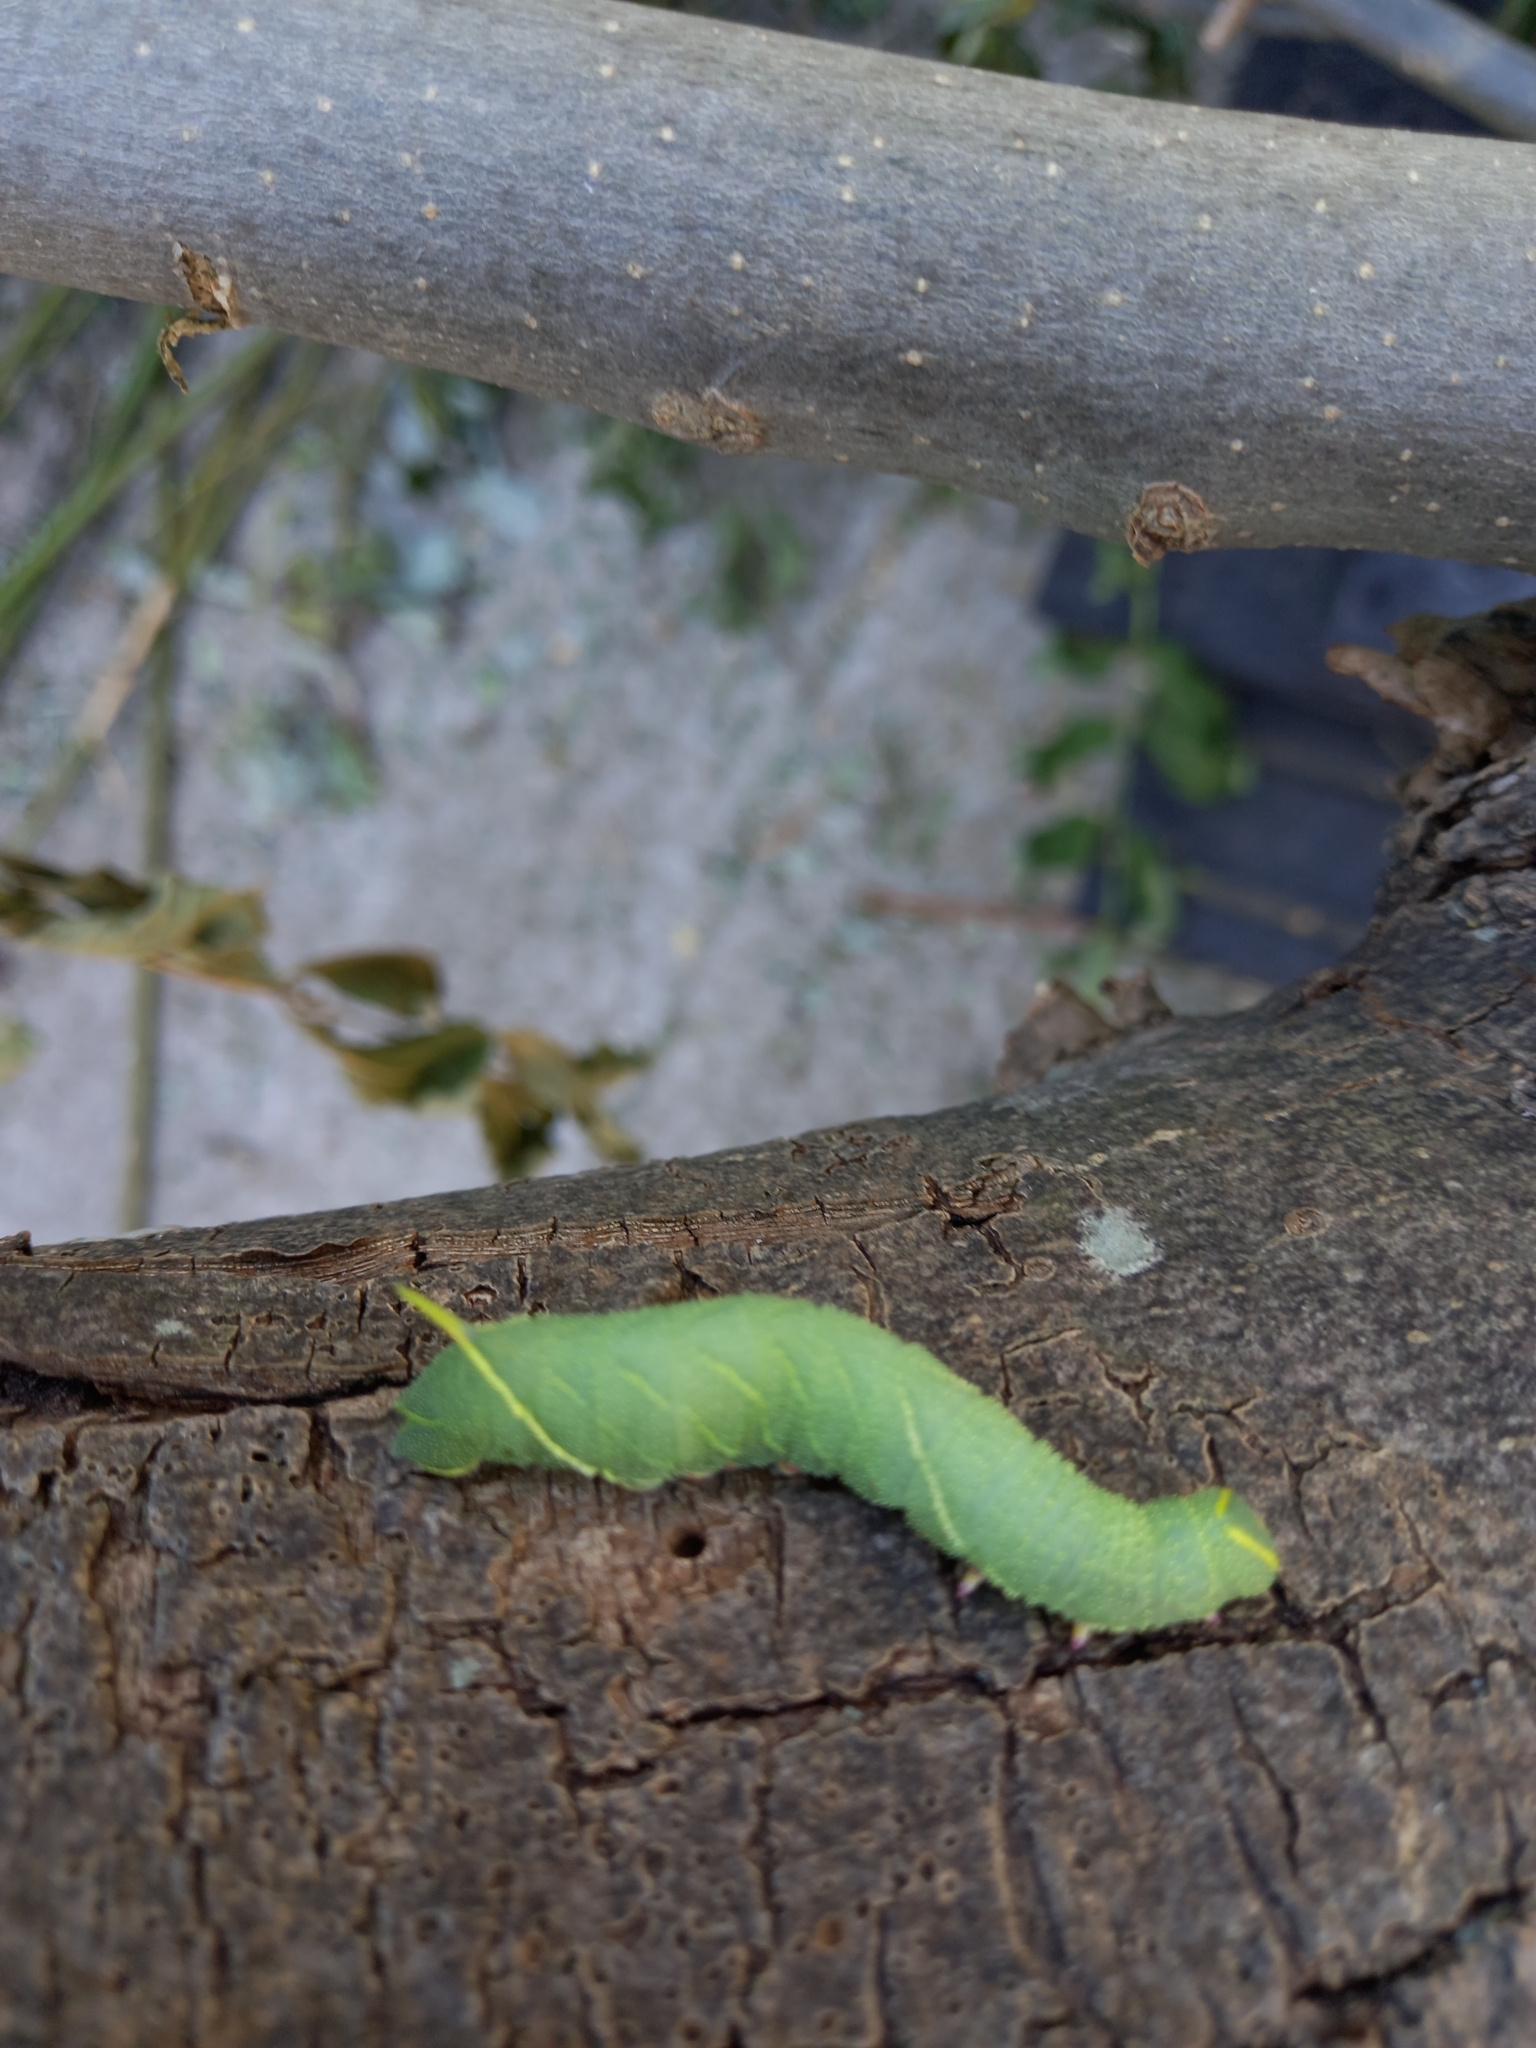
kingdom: Animalia
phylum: Arthropoda
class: Insecta
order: Lepidoptera
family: Sphingidae
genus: Laothoe
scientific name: Laothoe populi
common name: Poplar hawk-moth
